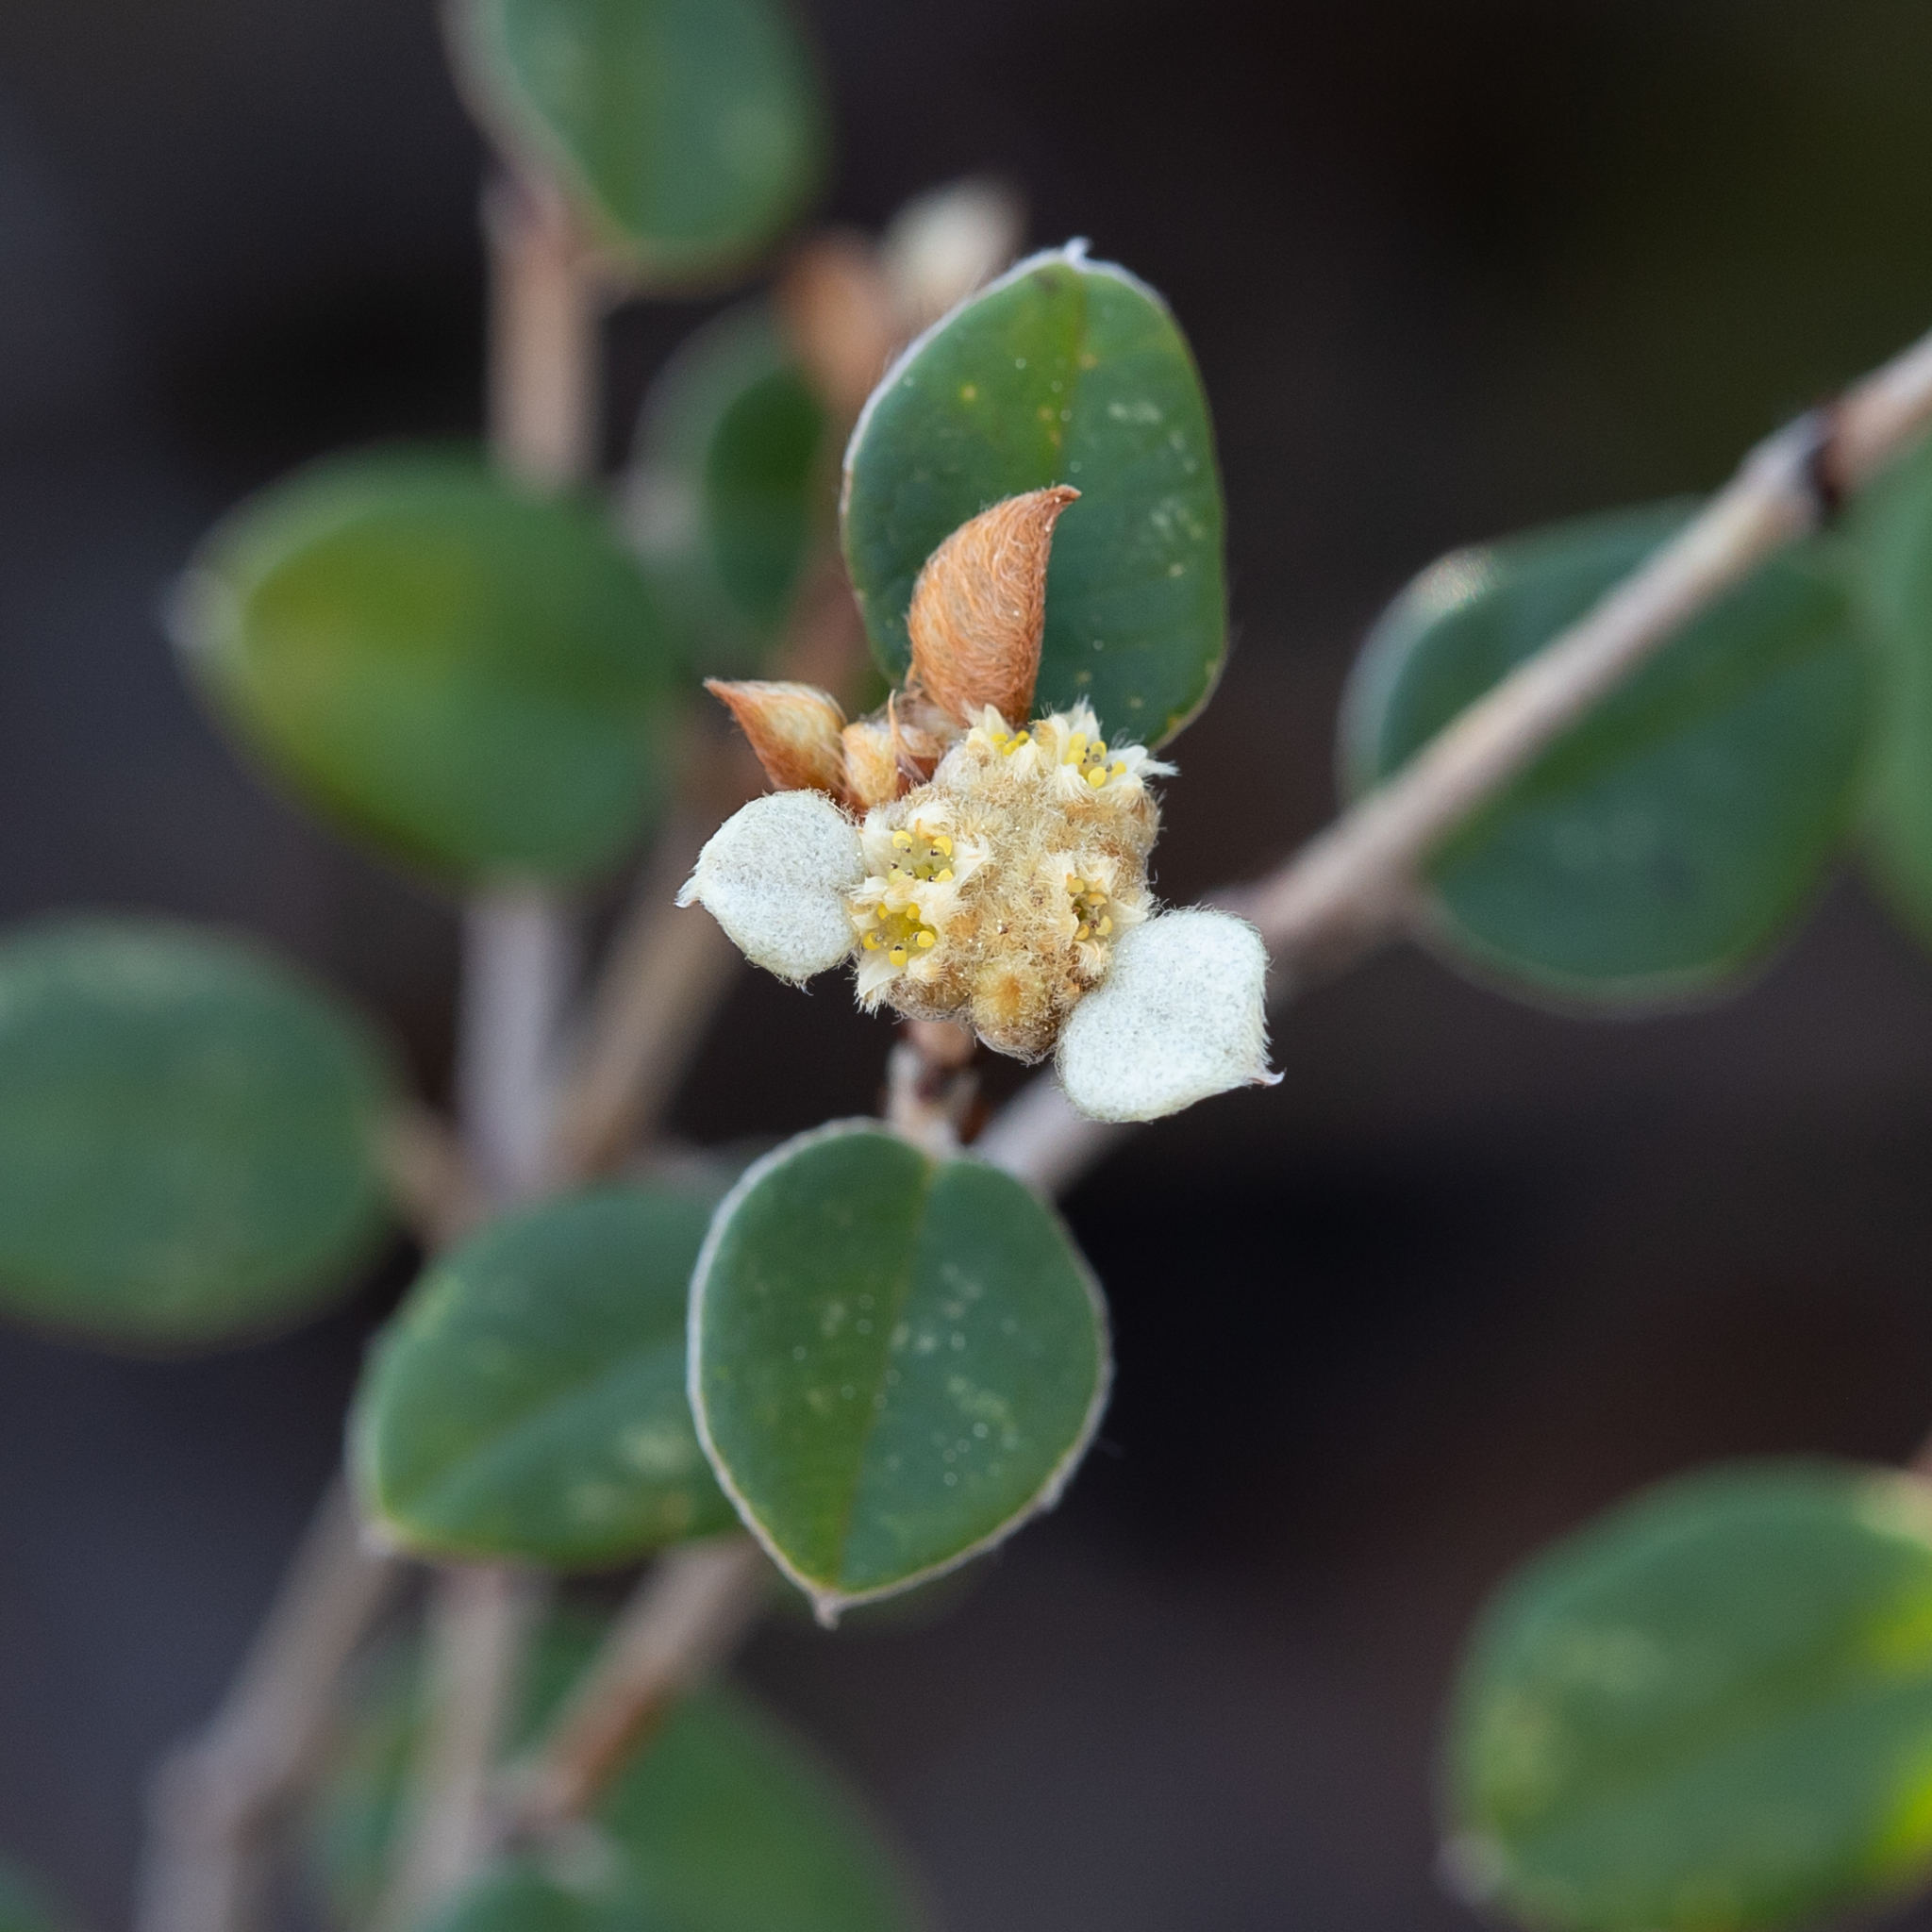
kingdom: Plantae
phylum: Tracheophyta
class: Magnoliopsida
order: Rosales
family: Rhamnaceae
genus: Spyridium
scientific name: Spyridium thymifolium
